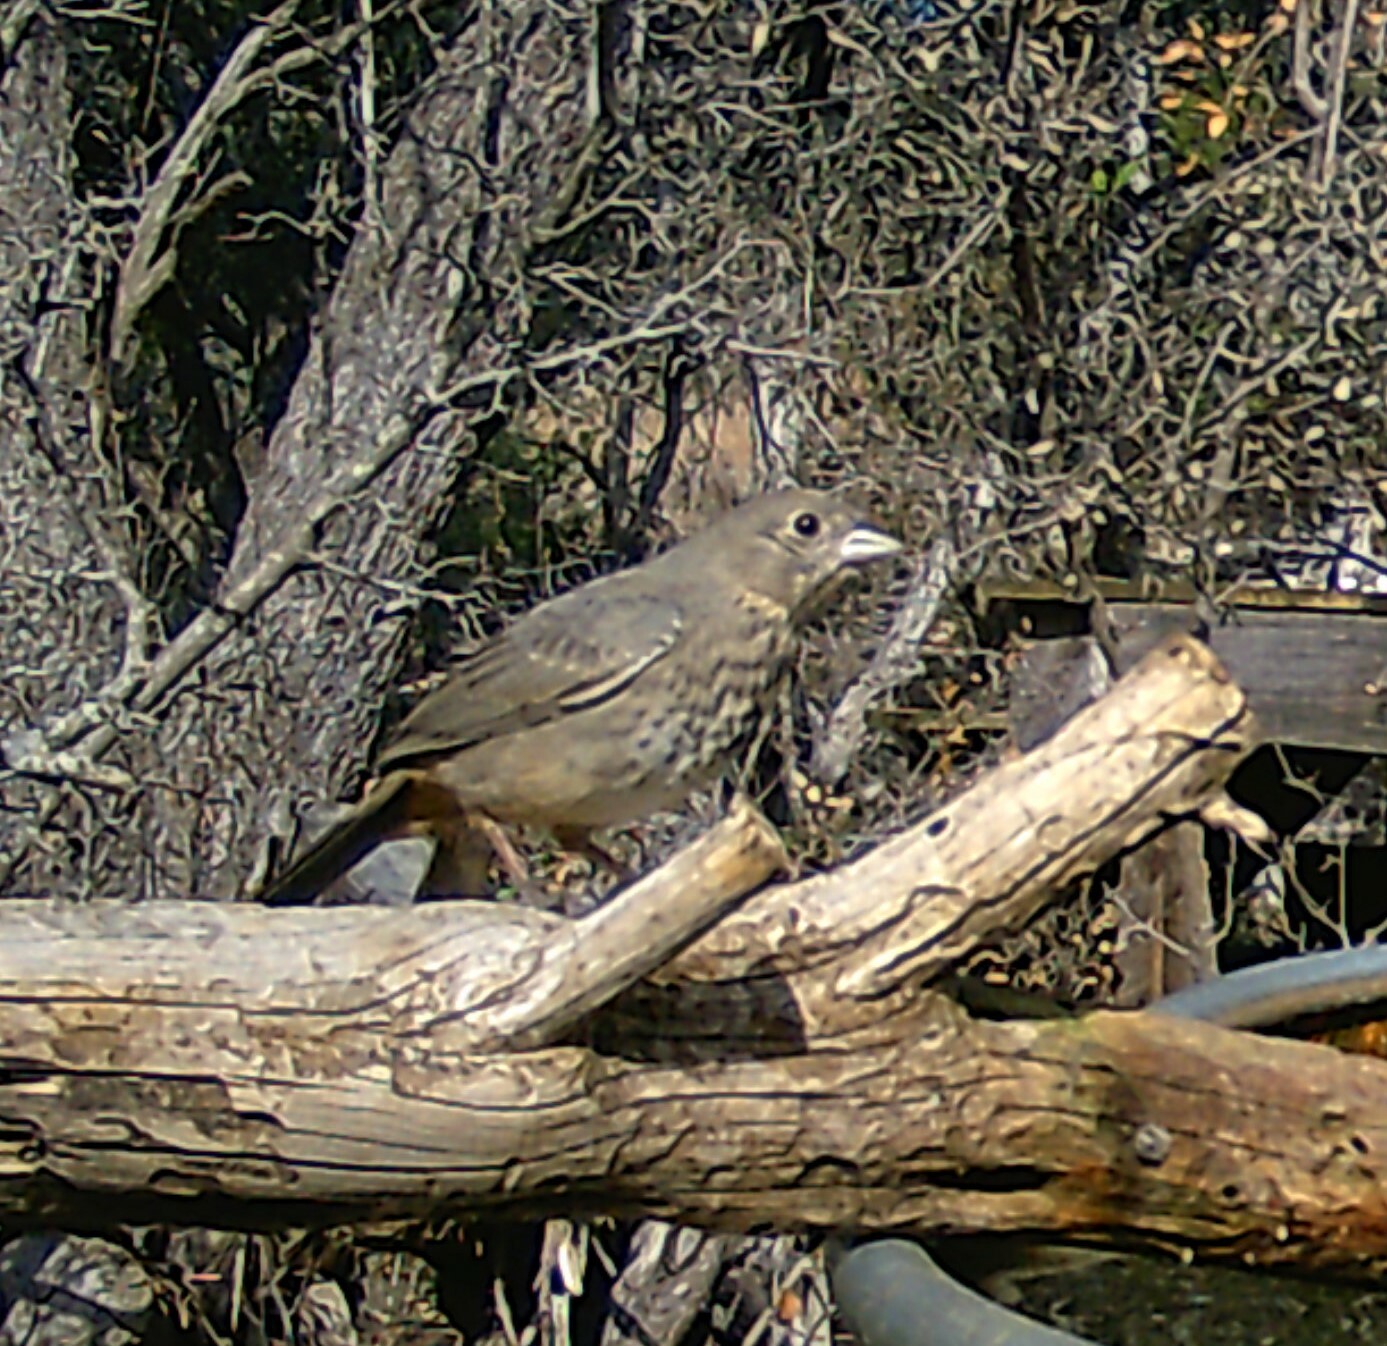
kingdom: Animalia
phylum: Chordata
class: Aves
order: Passeriformes
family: Passerellidae
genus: Melozone
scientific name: Melozone fusca
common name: Canyon towhee
